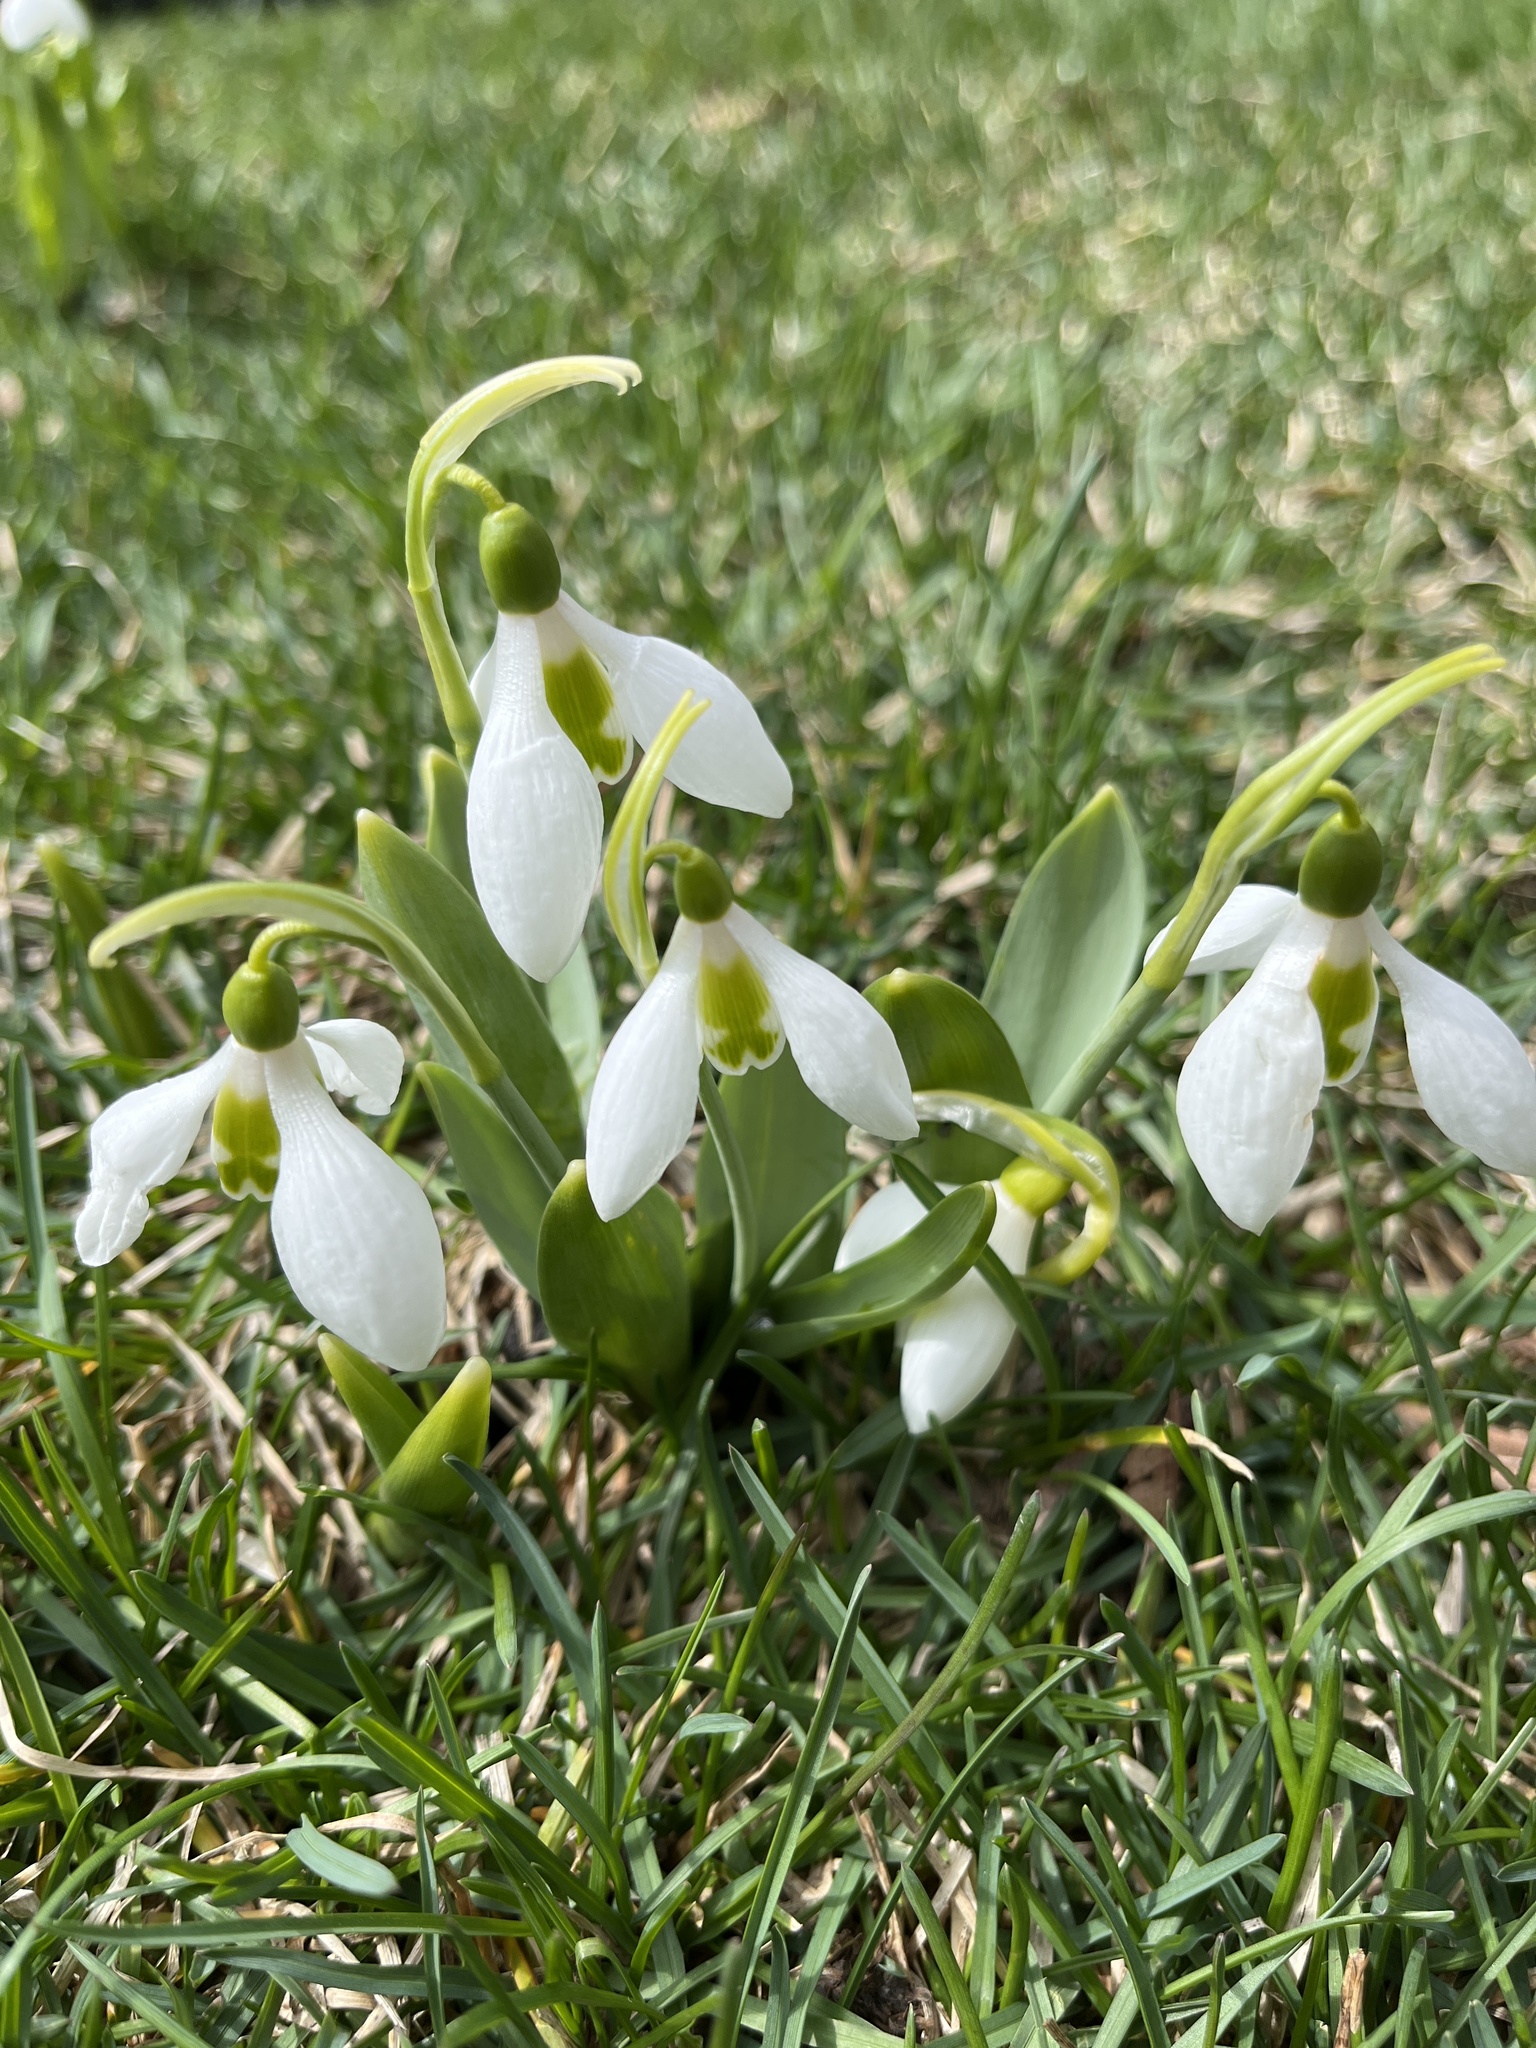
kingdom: Plantae
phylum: Tracheophyta
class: Liliopsida
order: Asparagales
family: Amaryllidaceae
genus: Galanthus
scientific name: Galanthus elwesii
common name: Greater snowdrop
